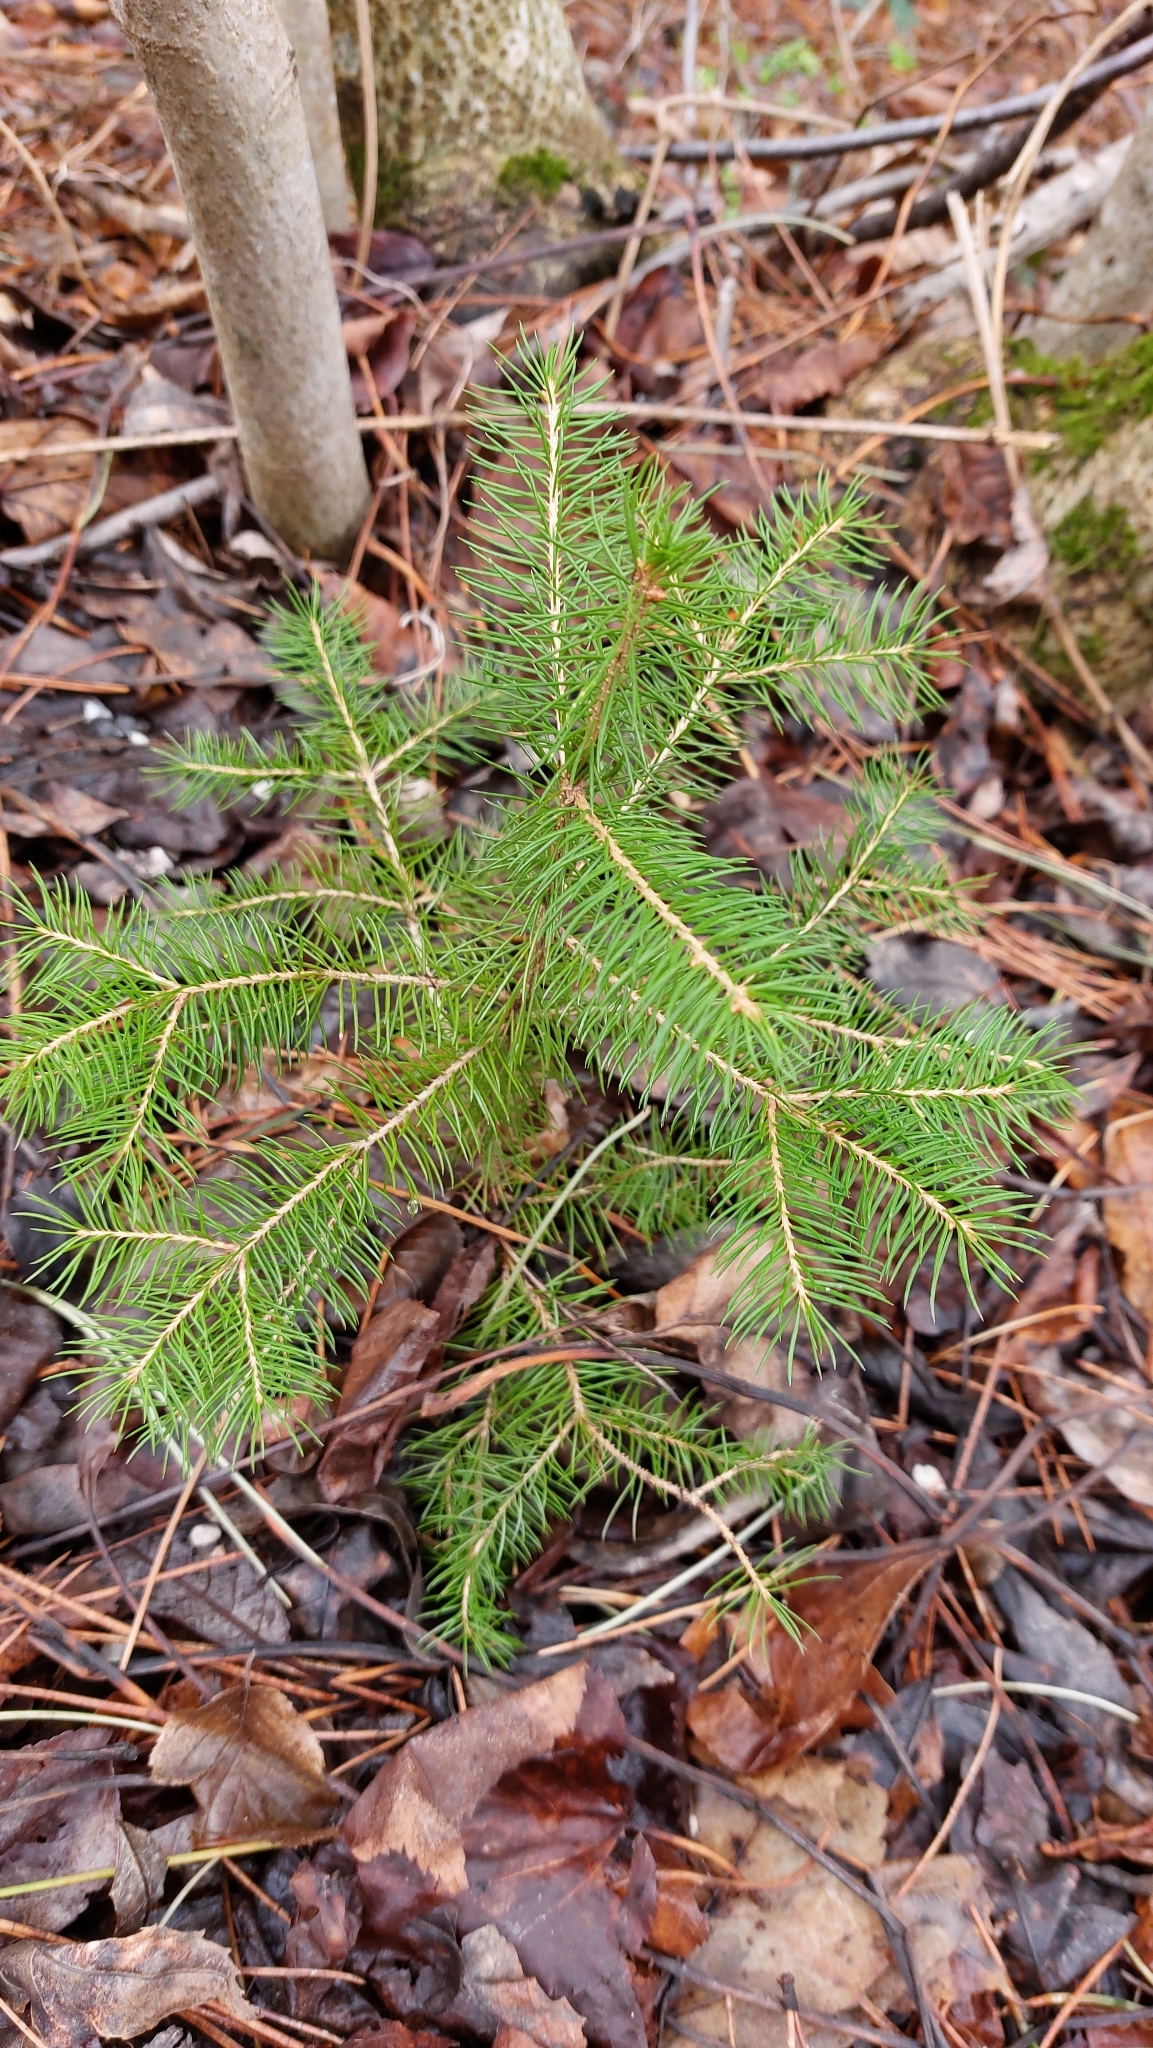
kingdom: Plantae
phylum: Tracheophyta
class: Pinopsida
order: Pinales
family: Pinaceae
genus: Picea
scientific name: Picea abies
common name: Norway spruce
